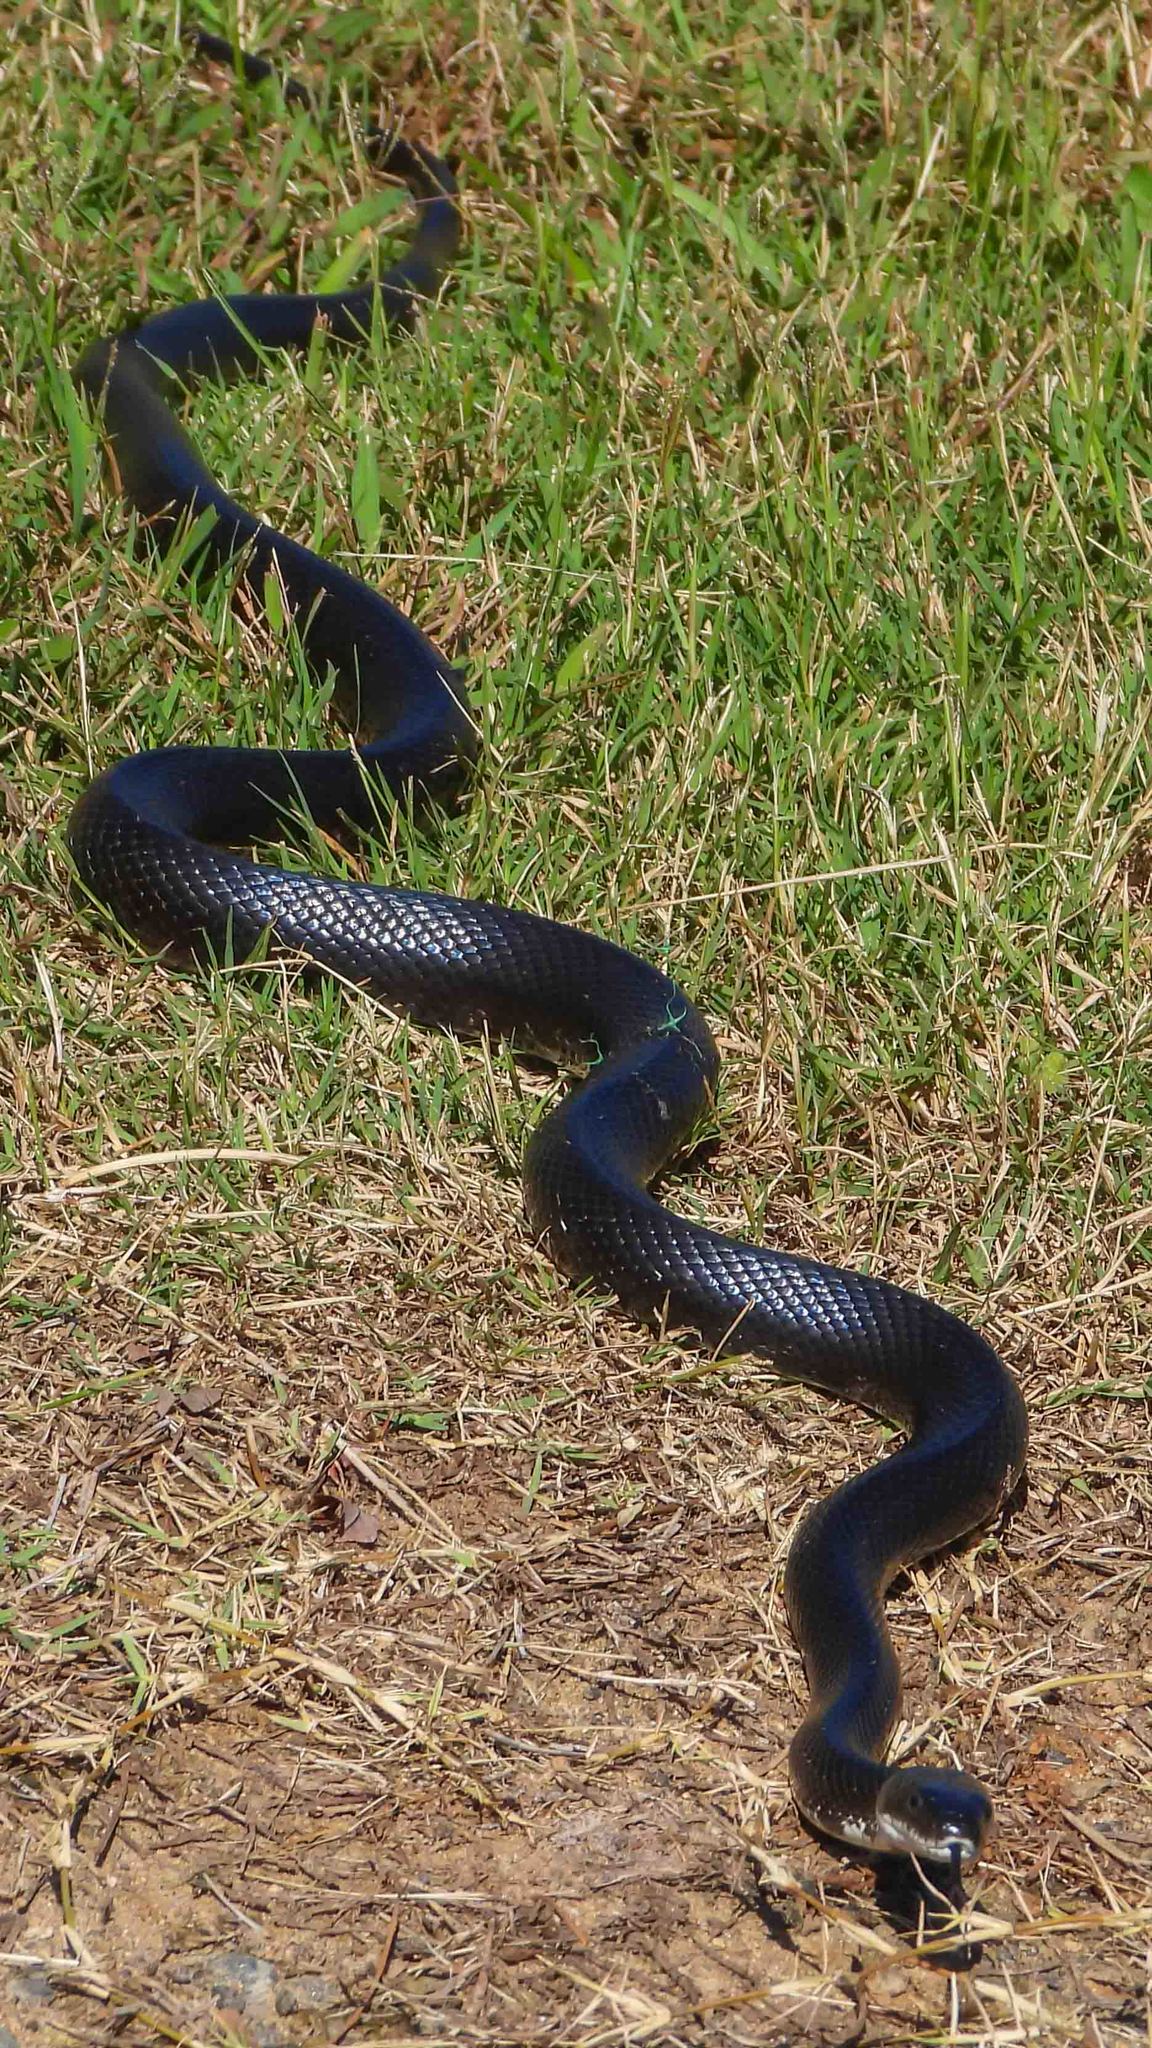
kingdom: Animalia
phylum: Chordata
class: Squamata
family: Colubridae
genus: Pantherophis
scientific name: Pantherophis alleghaniensis
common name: Eastern rat snake
